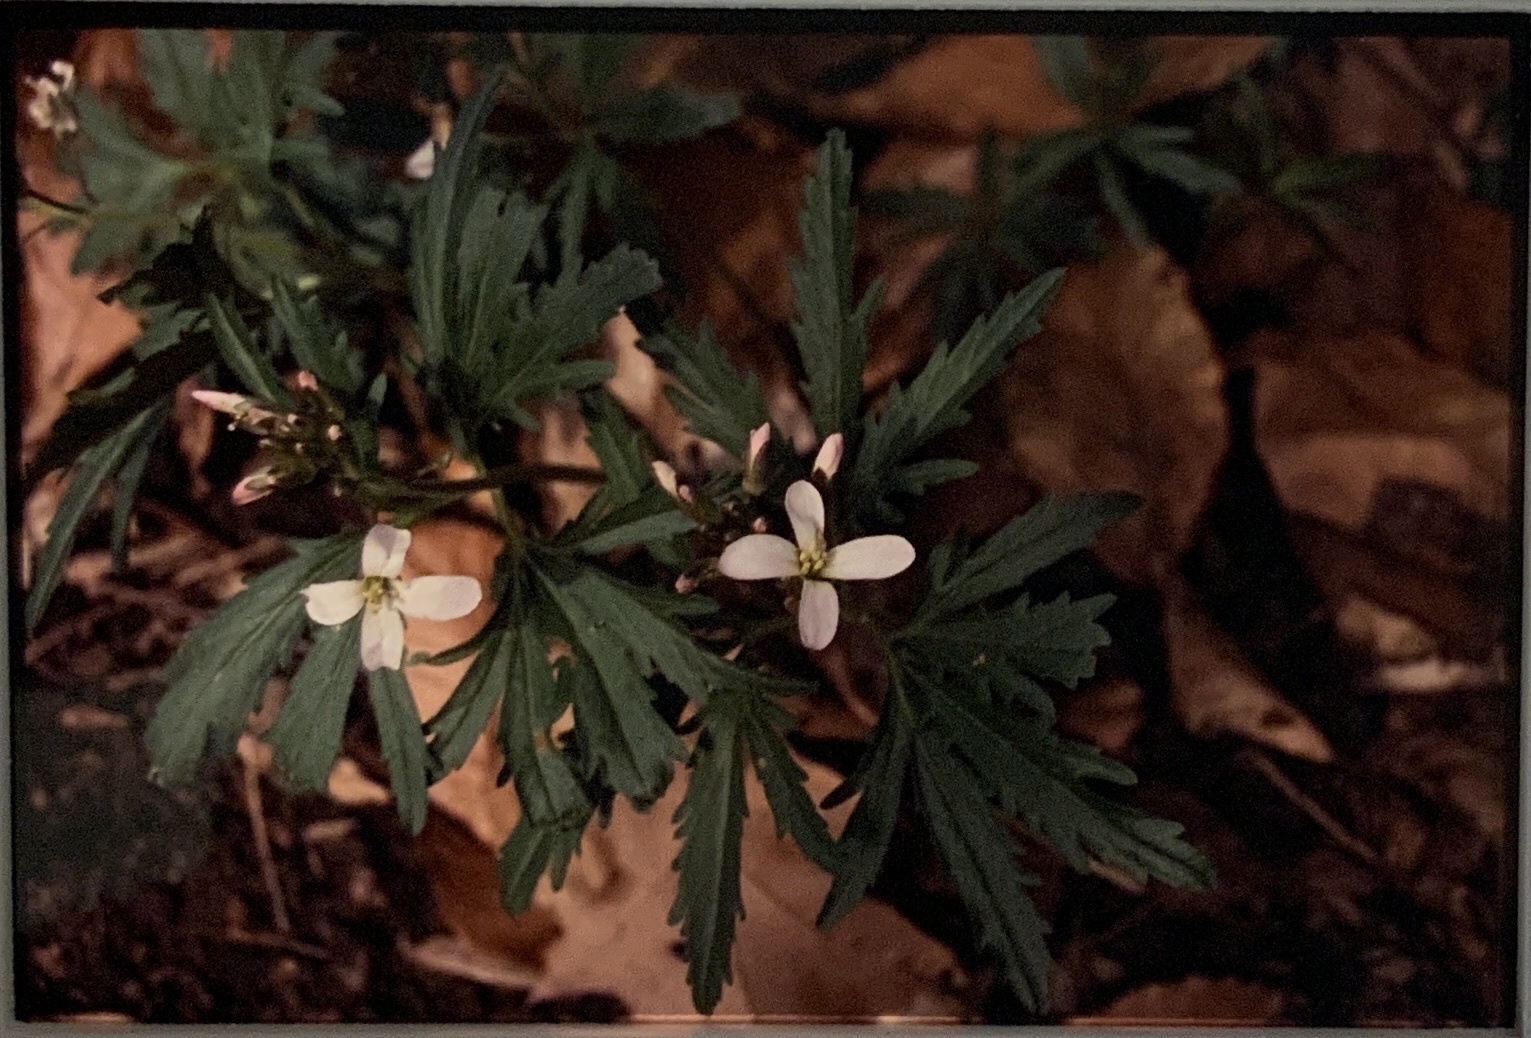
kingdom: Plantae
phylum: Tracheophyta
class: Magnoliopsida
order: Brassicales
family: Brassicaceae
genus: Cardamine
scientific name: Cardamine concatenata
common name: Cut-leaf toothcup
